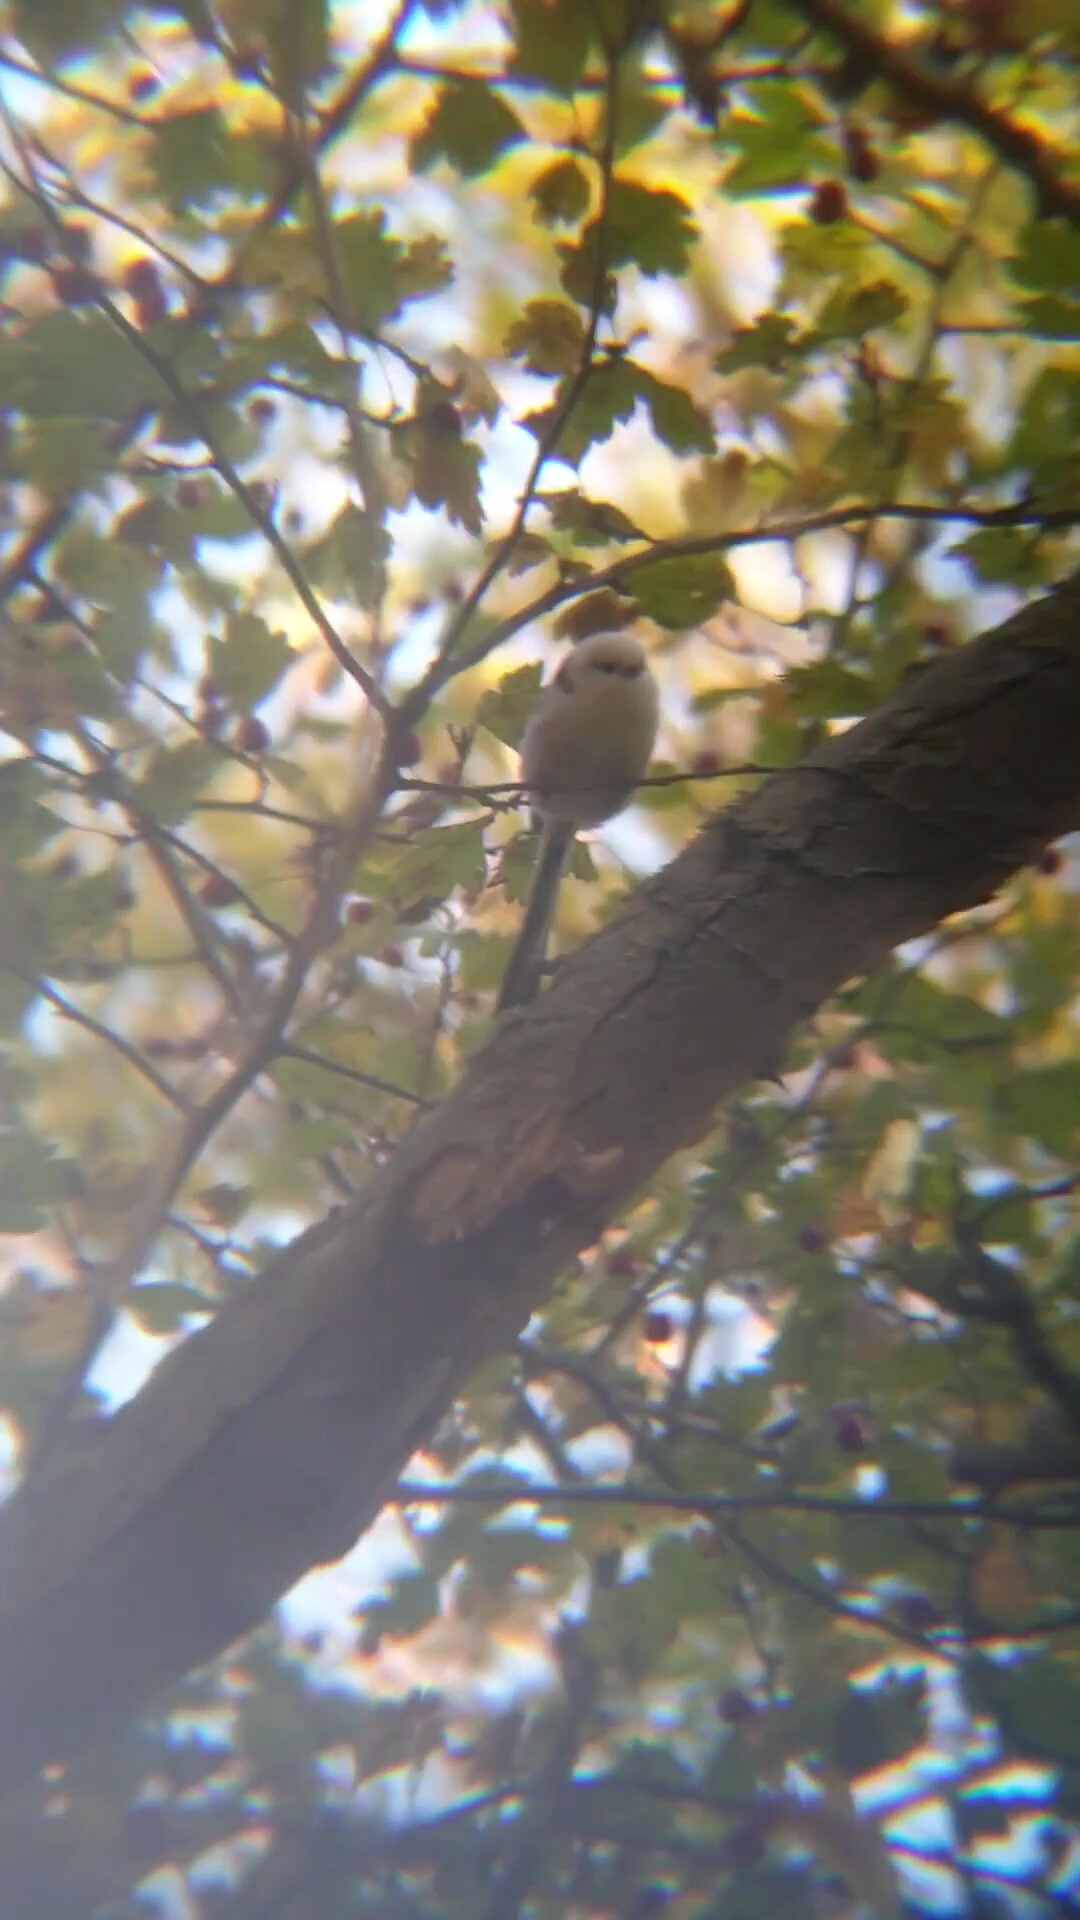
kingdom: Animalia
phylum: Chordata
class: Aves
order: Passeriformes
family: Aegithalidae
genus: Aegithalos
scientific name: Aegithalos caudatus
